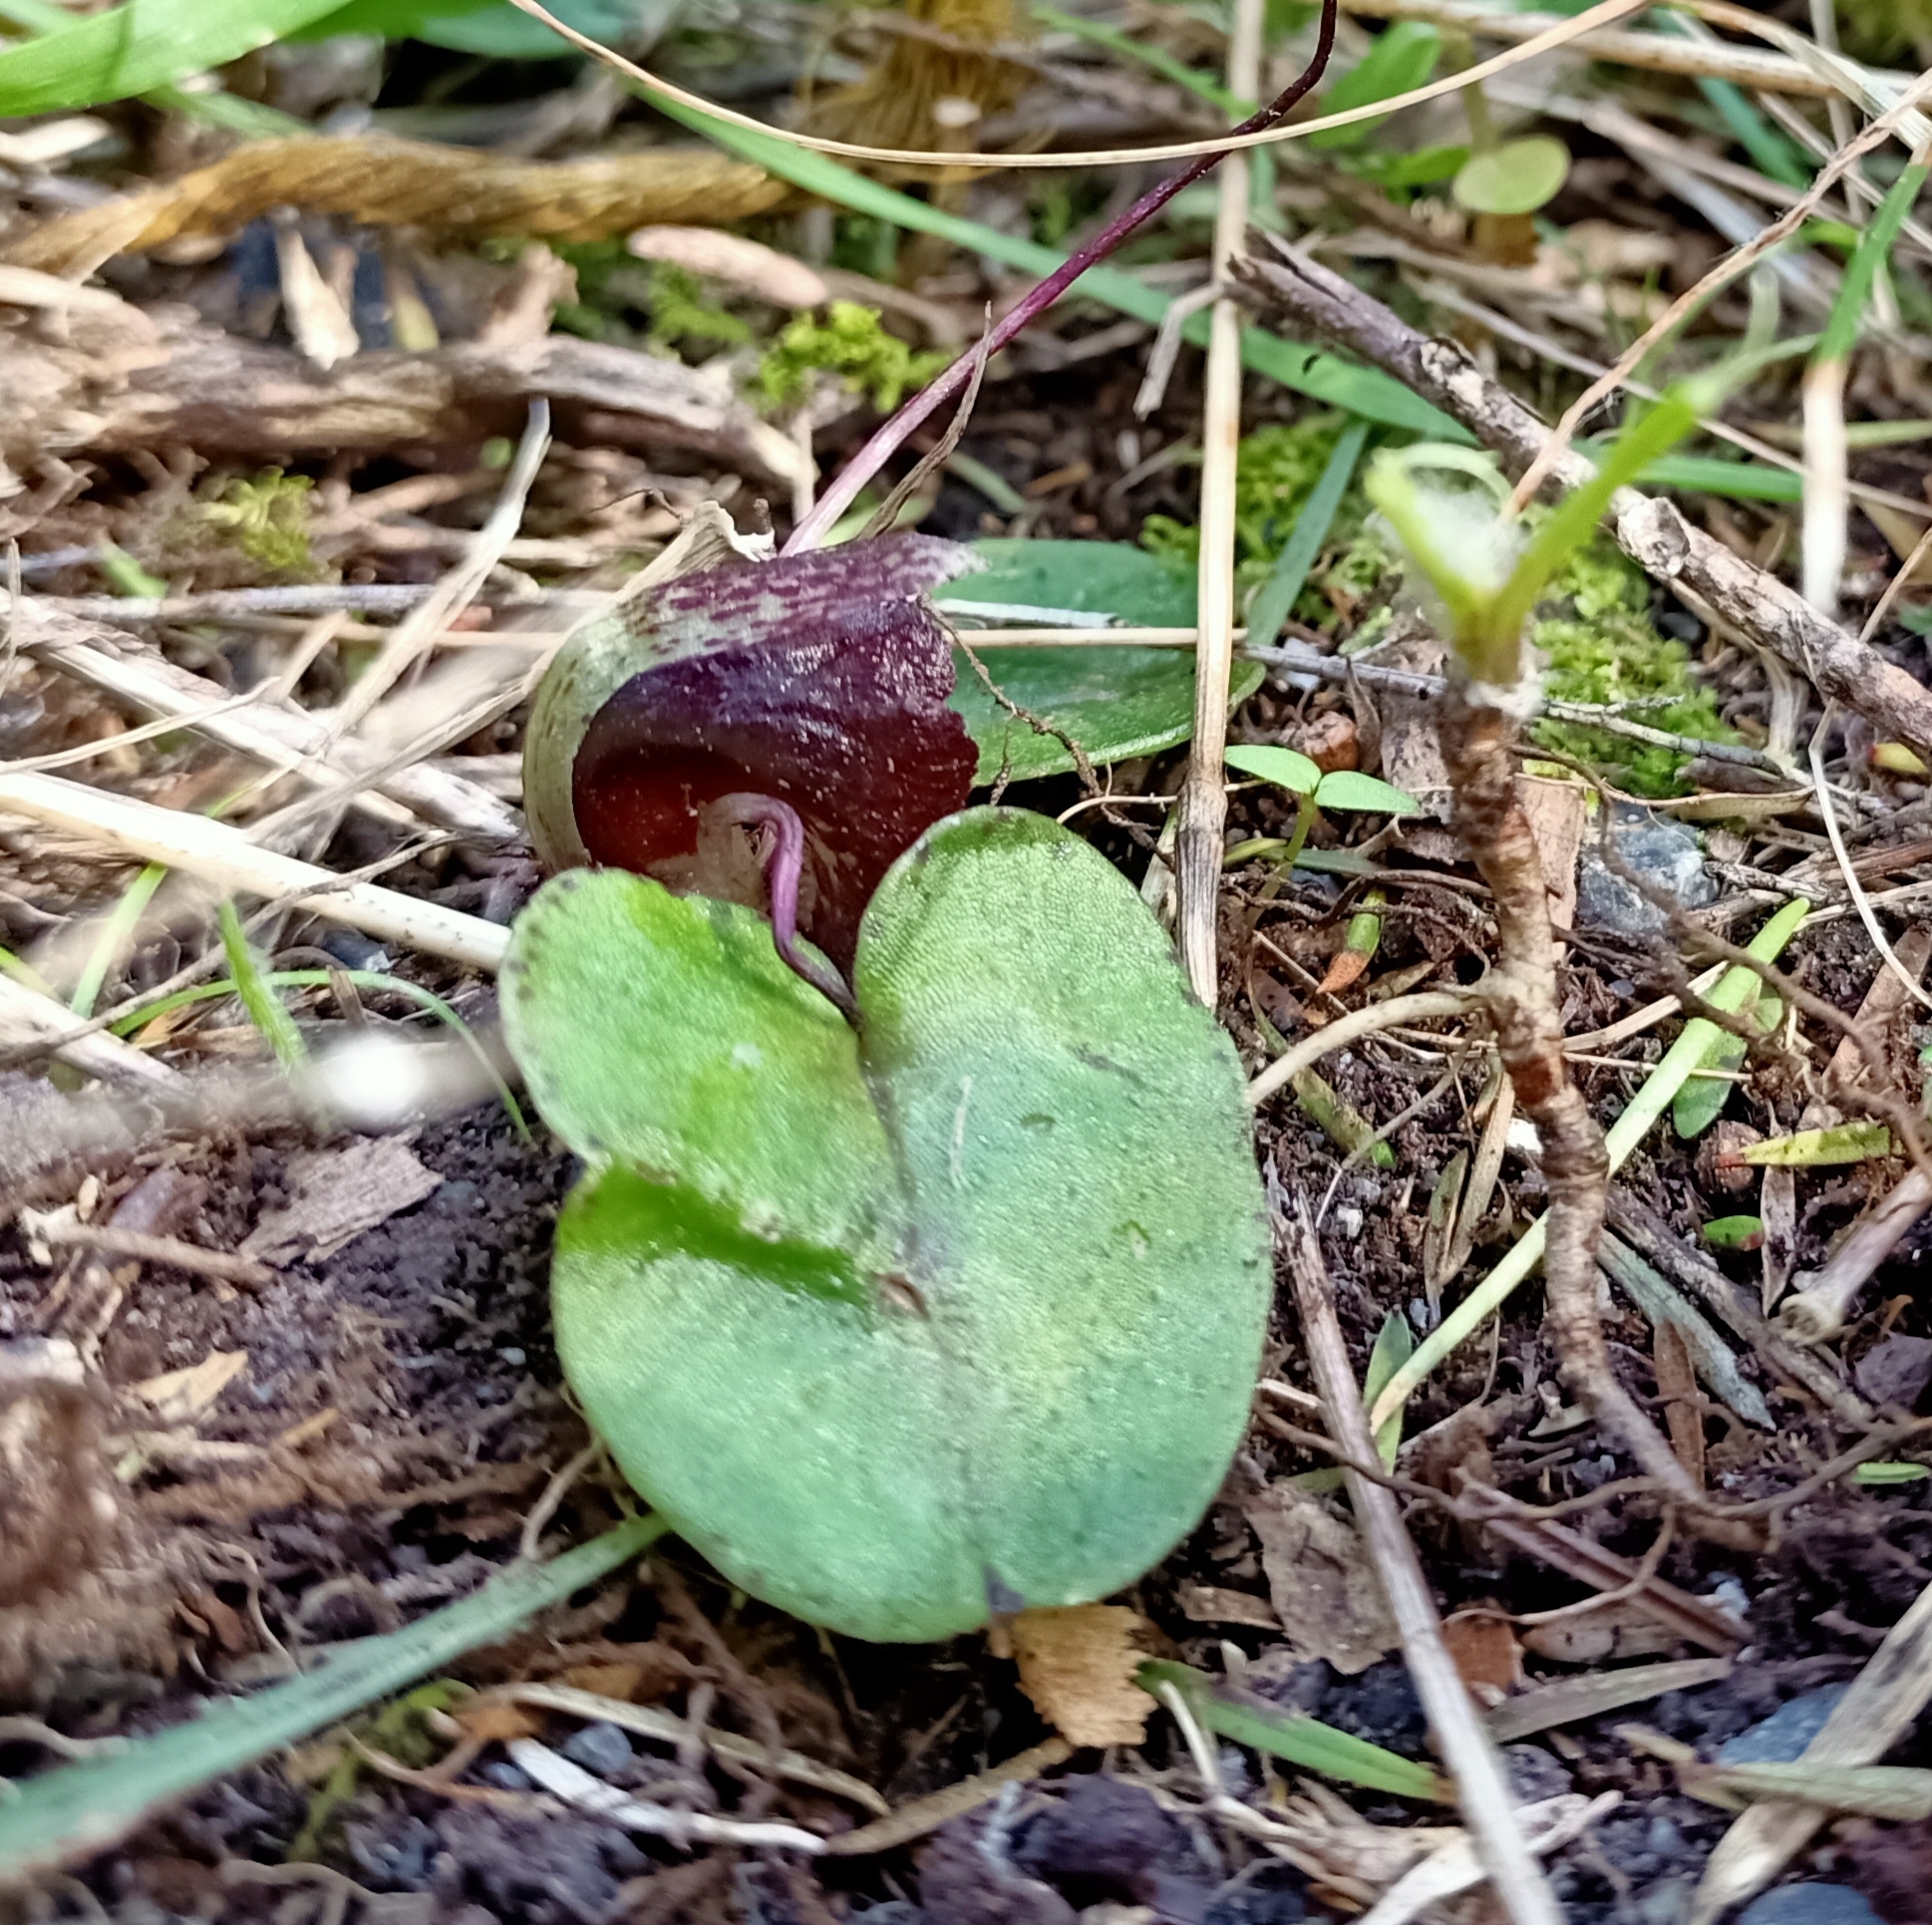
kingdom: Plantae
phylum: Tracheophyta
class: Liliopsida
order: Asparagales
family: Orchidaceae
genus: Corybas
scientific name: Corybas macranthus
